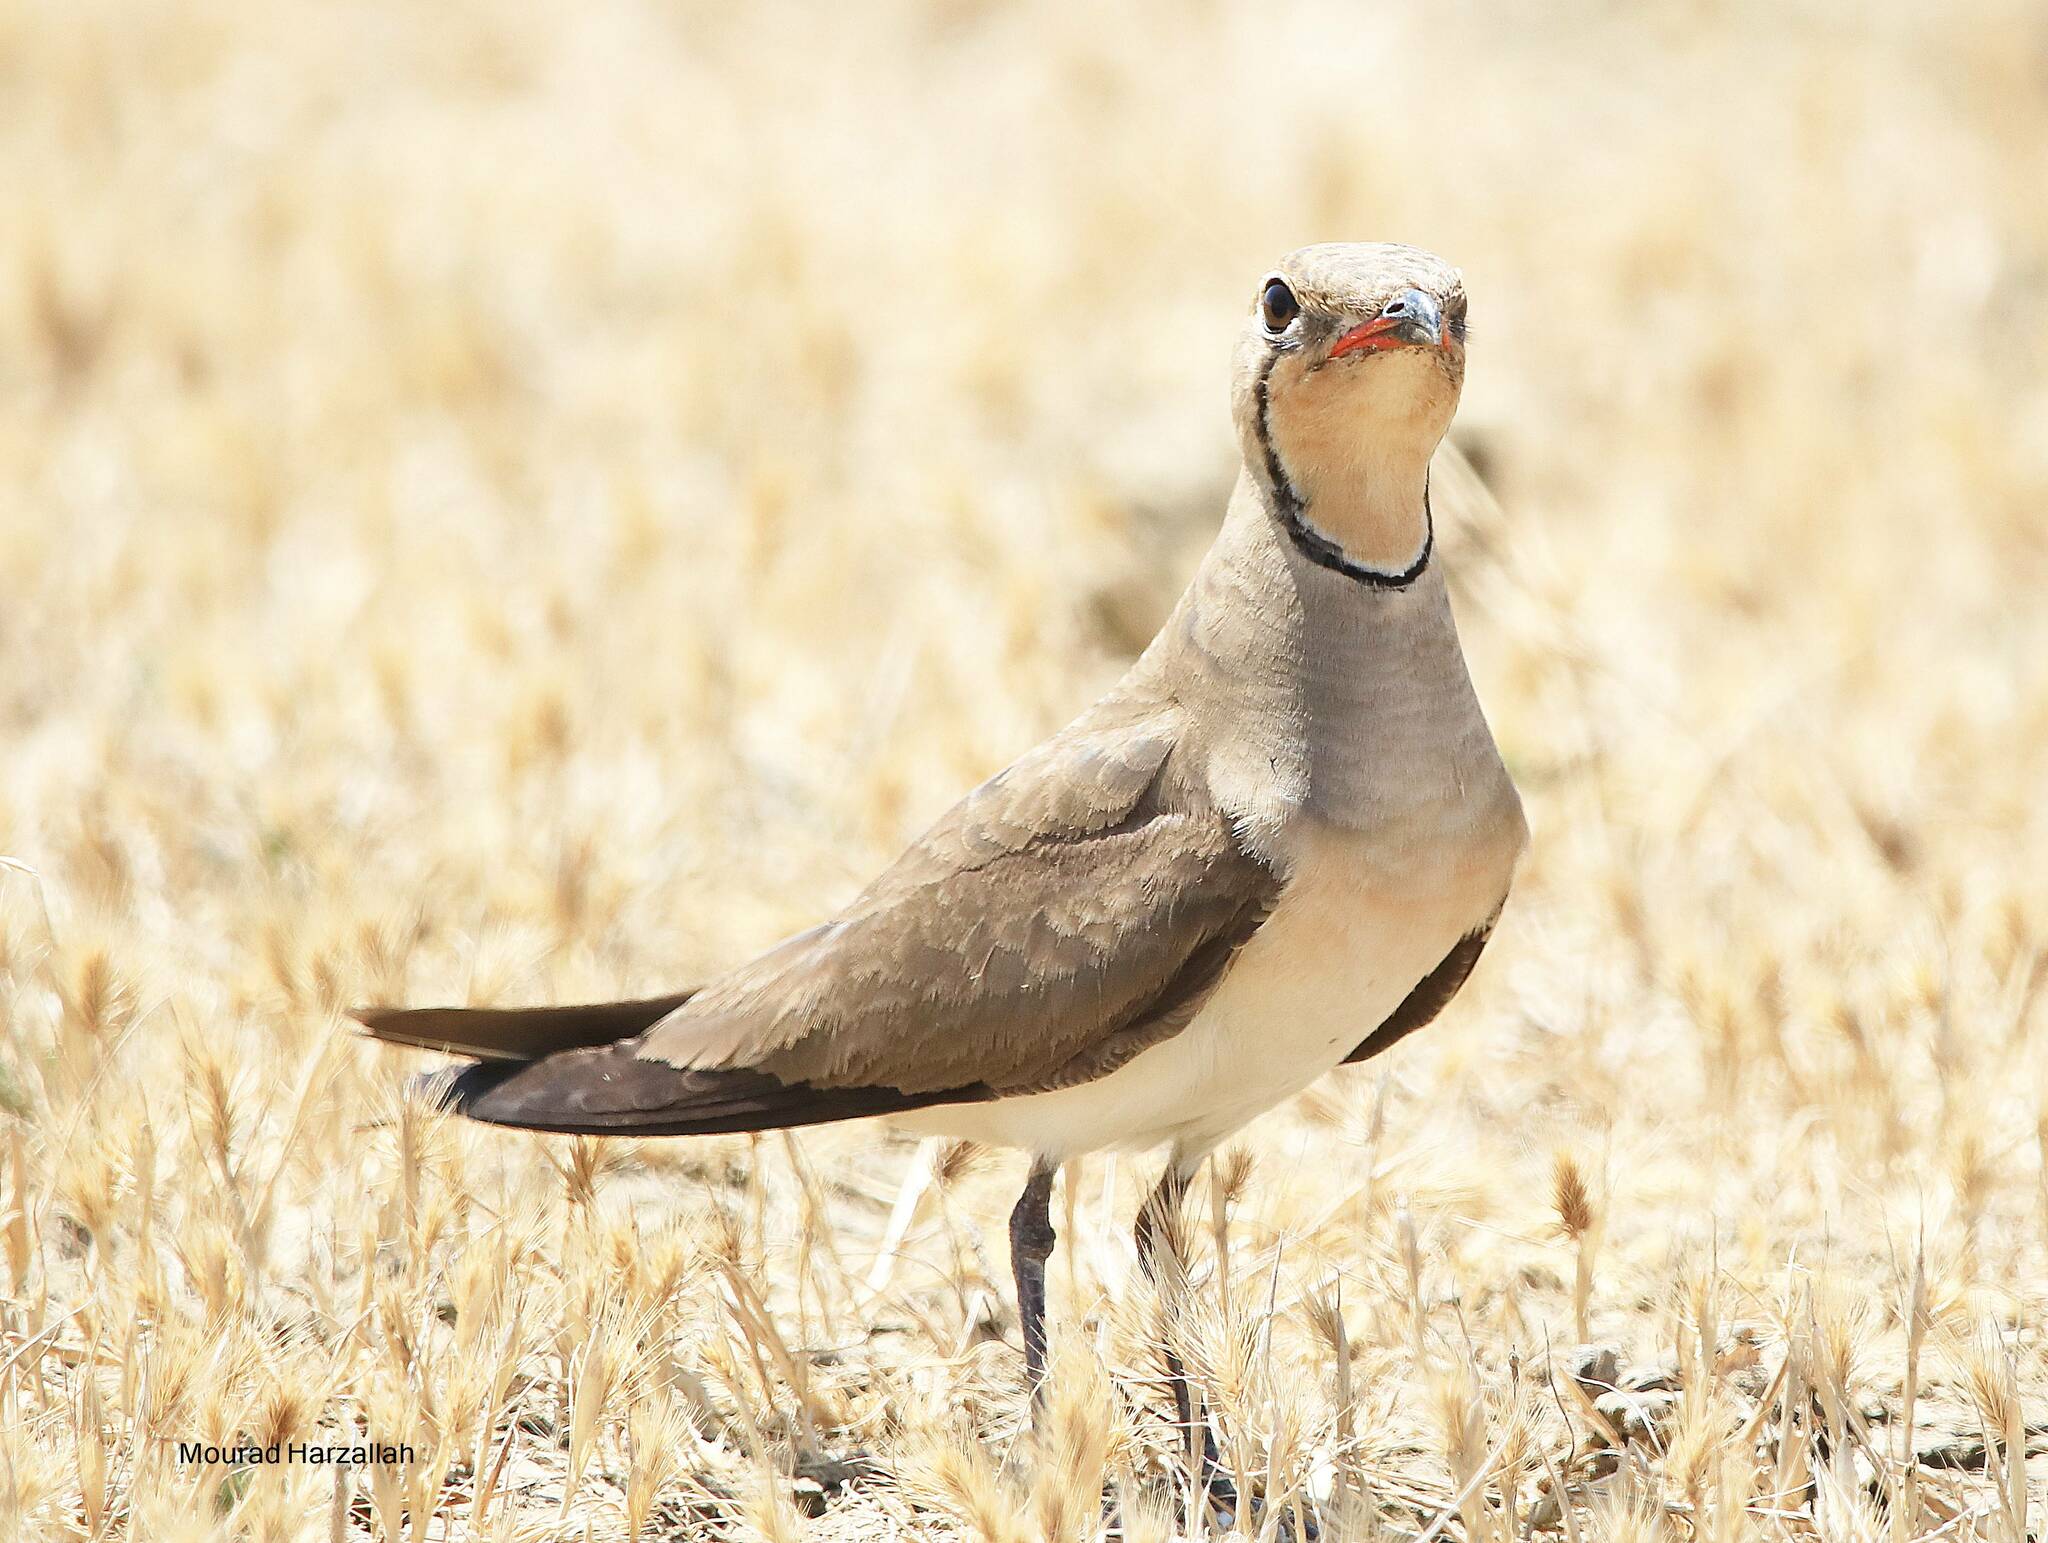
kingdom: Animalia
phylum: Chordata
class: Aves
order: Charadriiformes
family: Glareolidae
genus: Glareola
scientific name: Glareola pratincola
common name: Collared pratincole
